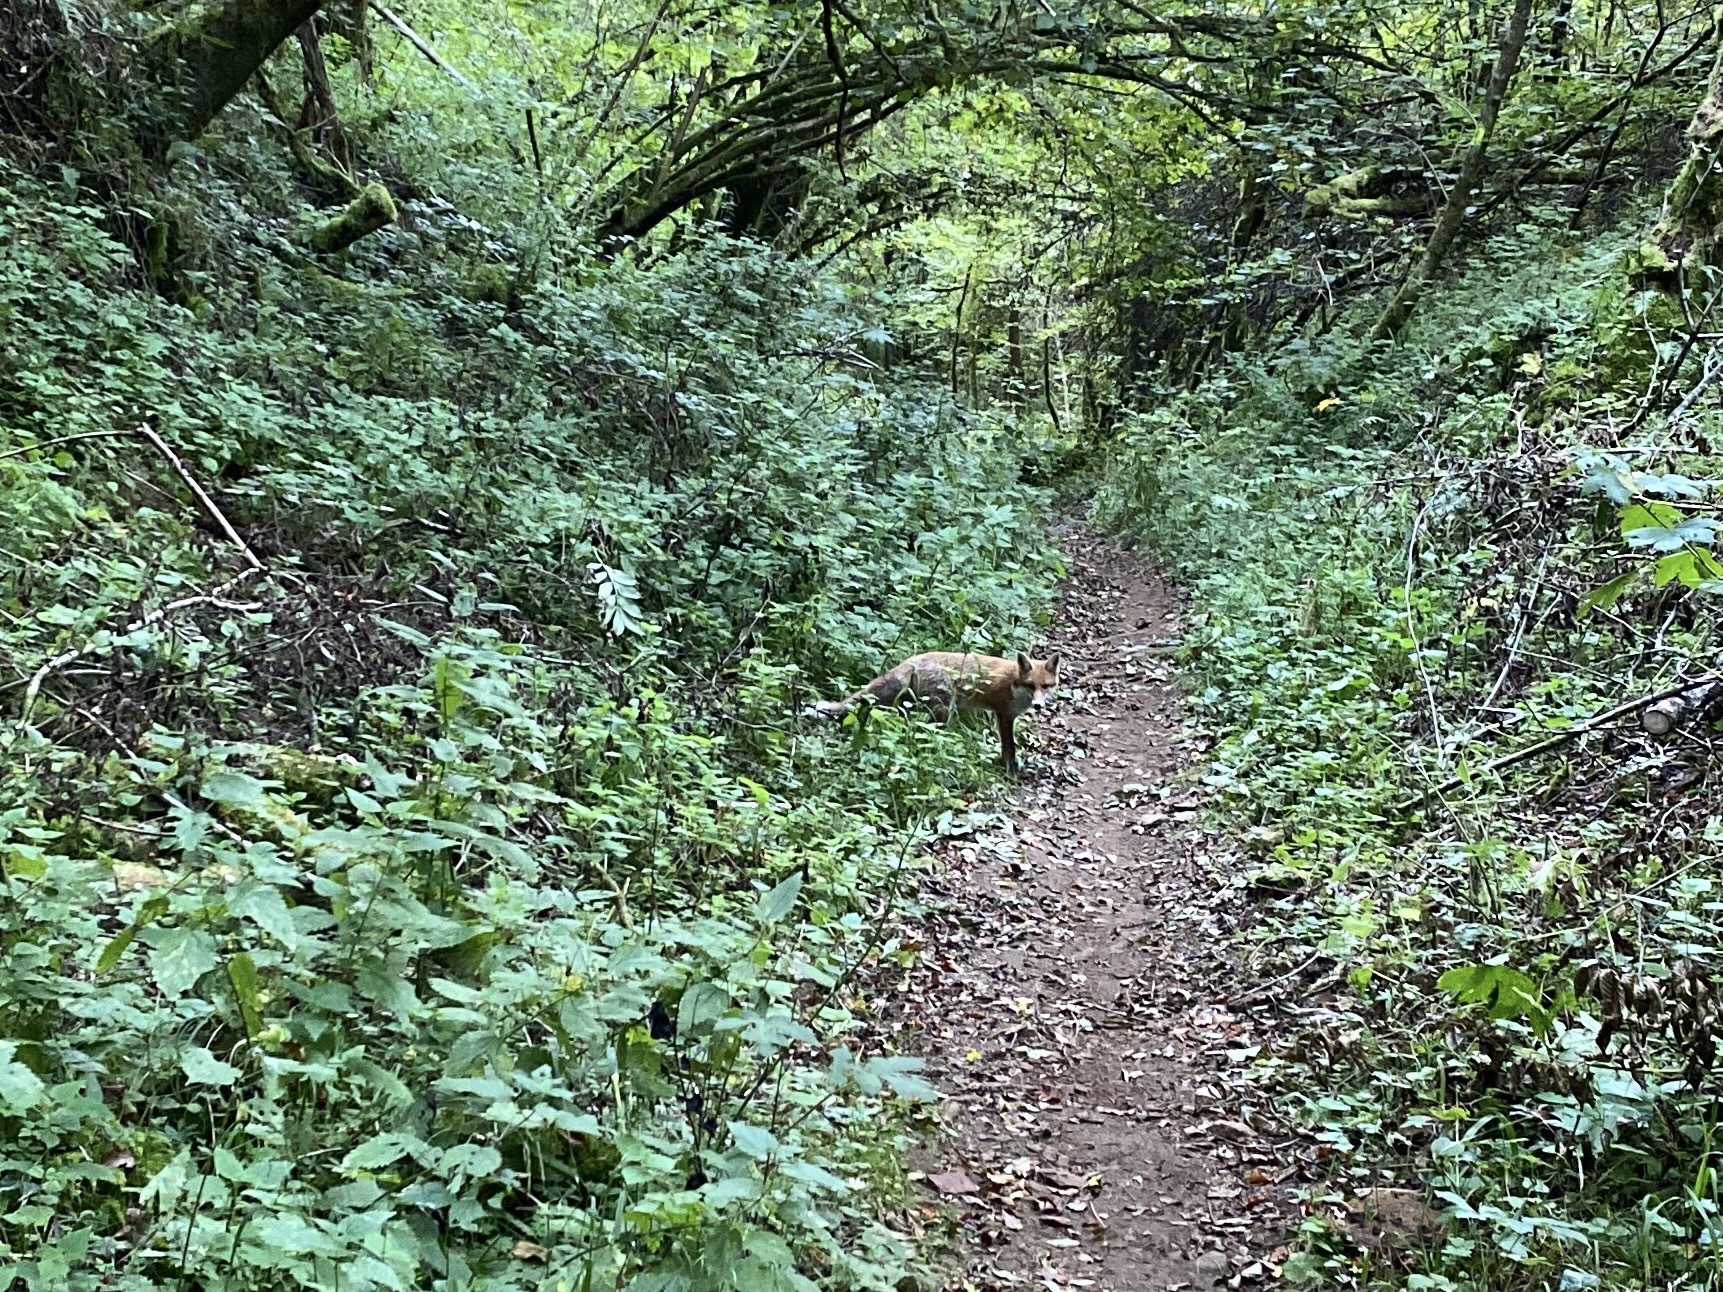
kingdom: Animalia
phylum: Chordata
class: Mammalia
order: Carnivora
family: Canidae
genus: Vulpes
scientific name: Vulpes vulpes
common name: Red fox
